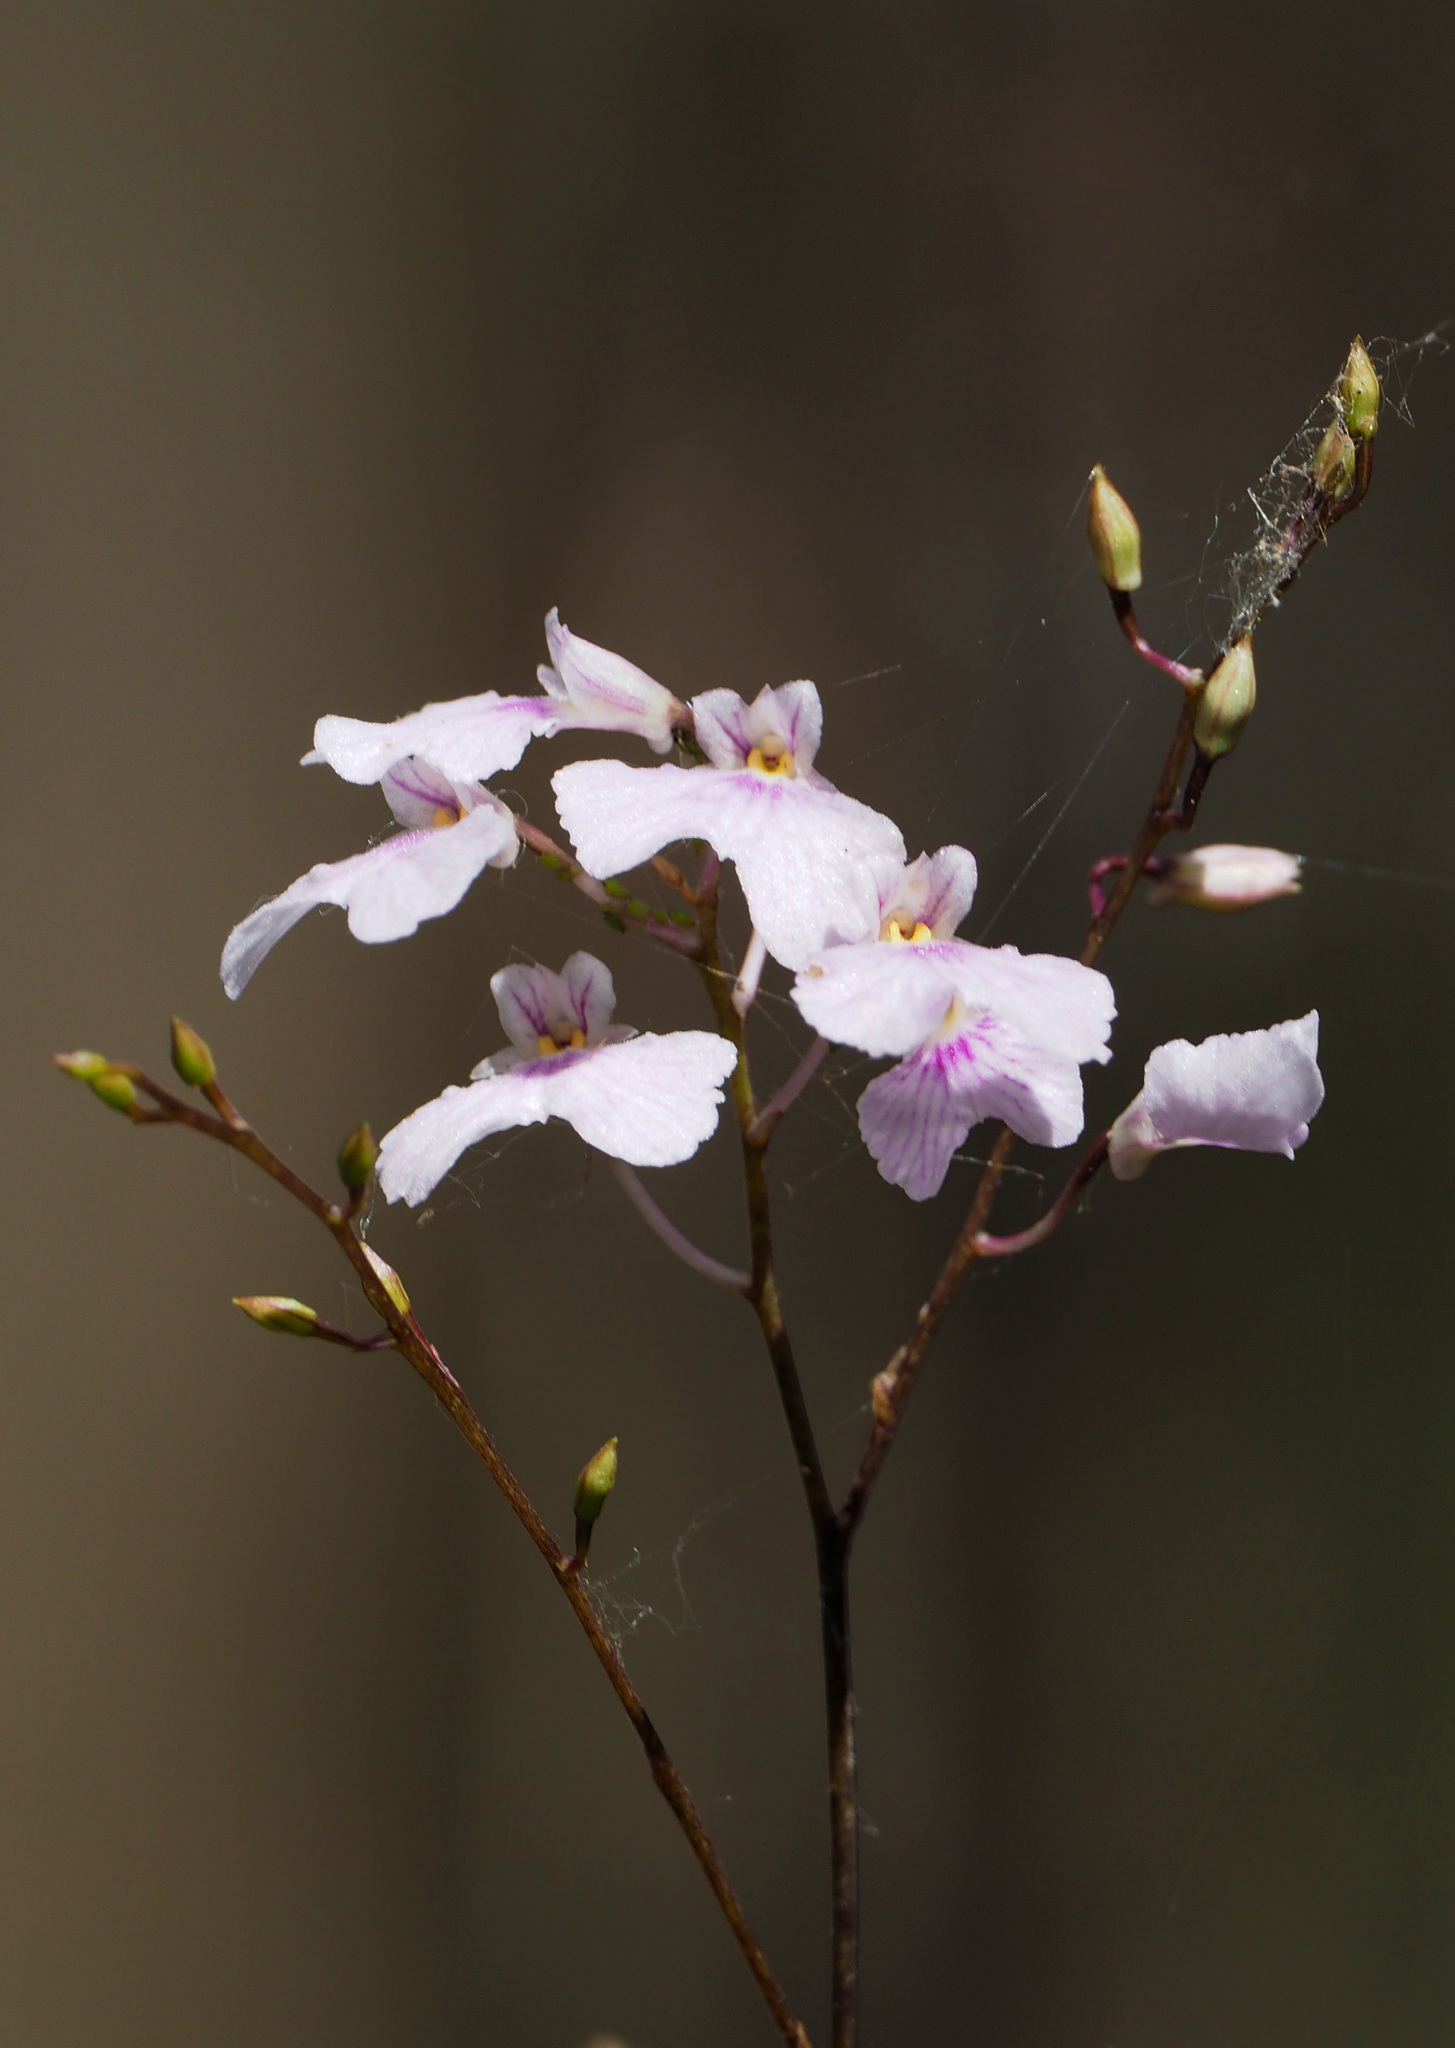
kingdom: Plantae
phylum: Tracheophyta
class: Liliopsida
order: Asparagales
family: Orchidaceae
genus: Ionopsis
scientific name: Ionopsis utricularioides
